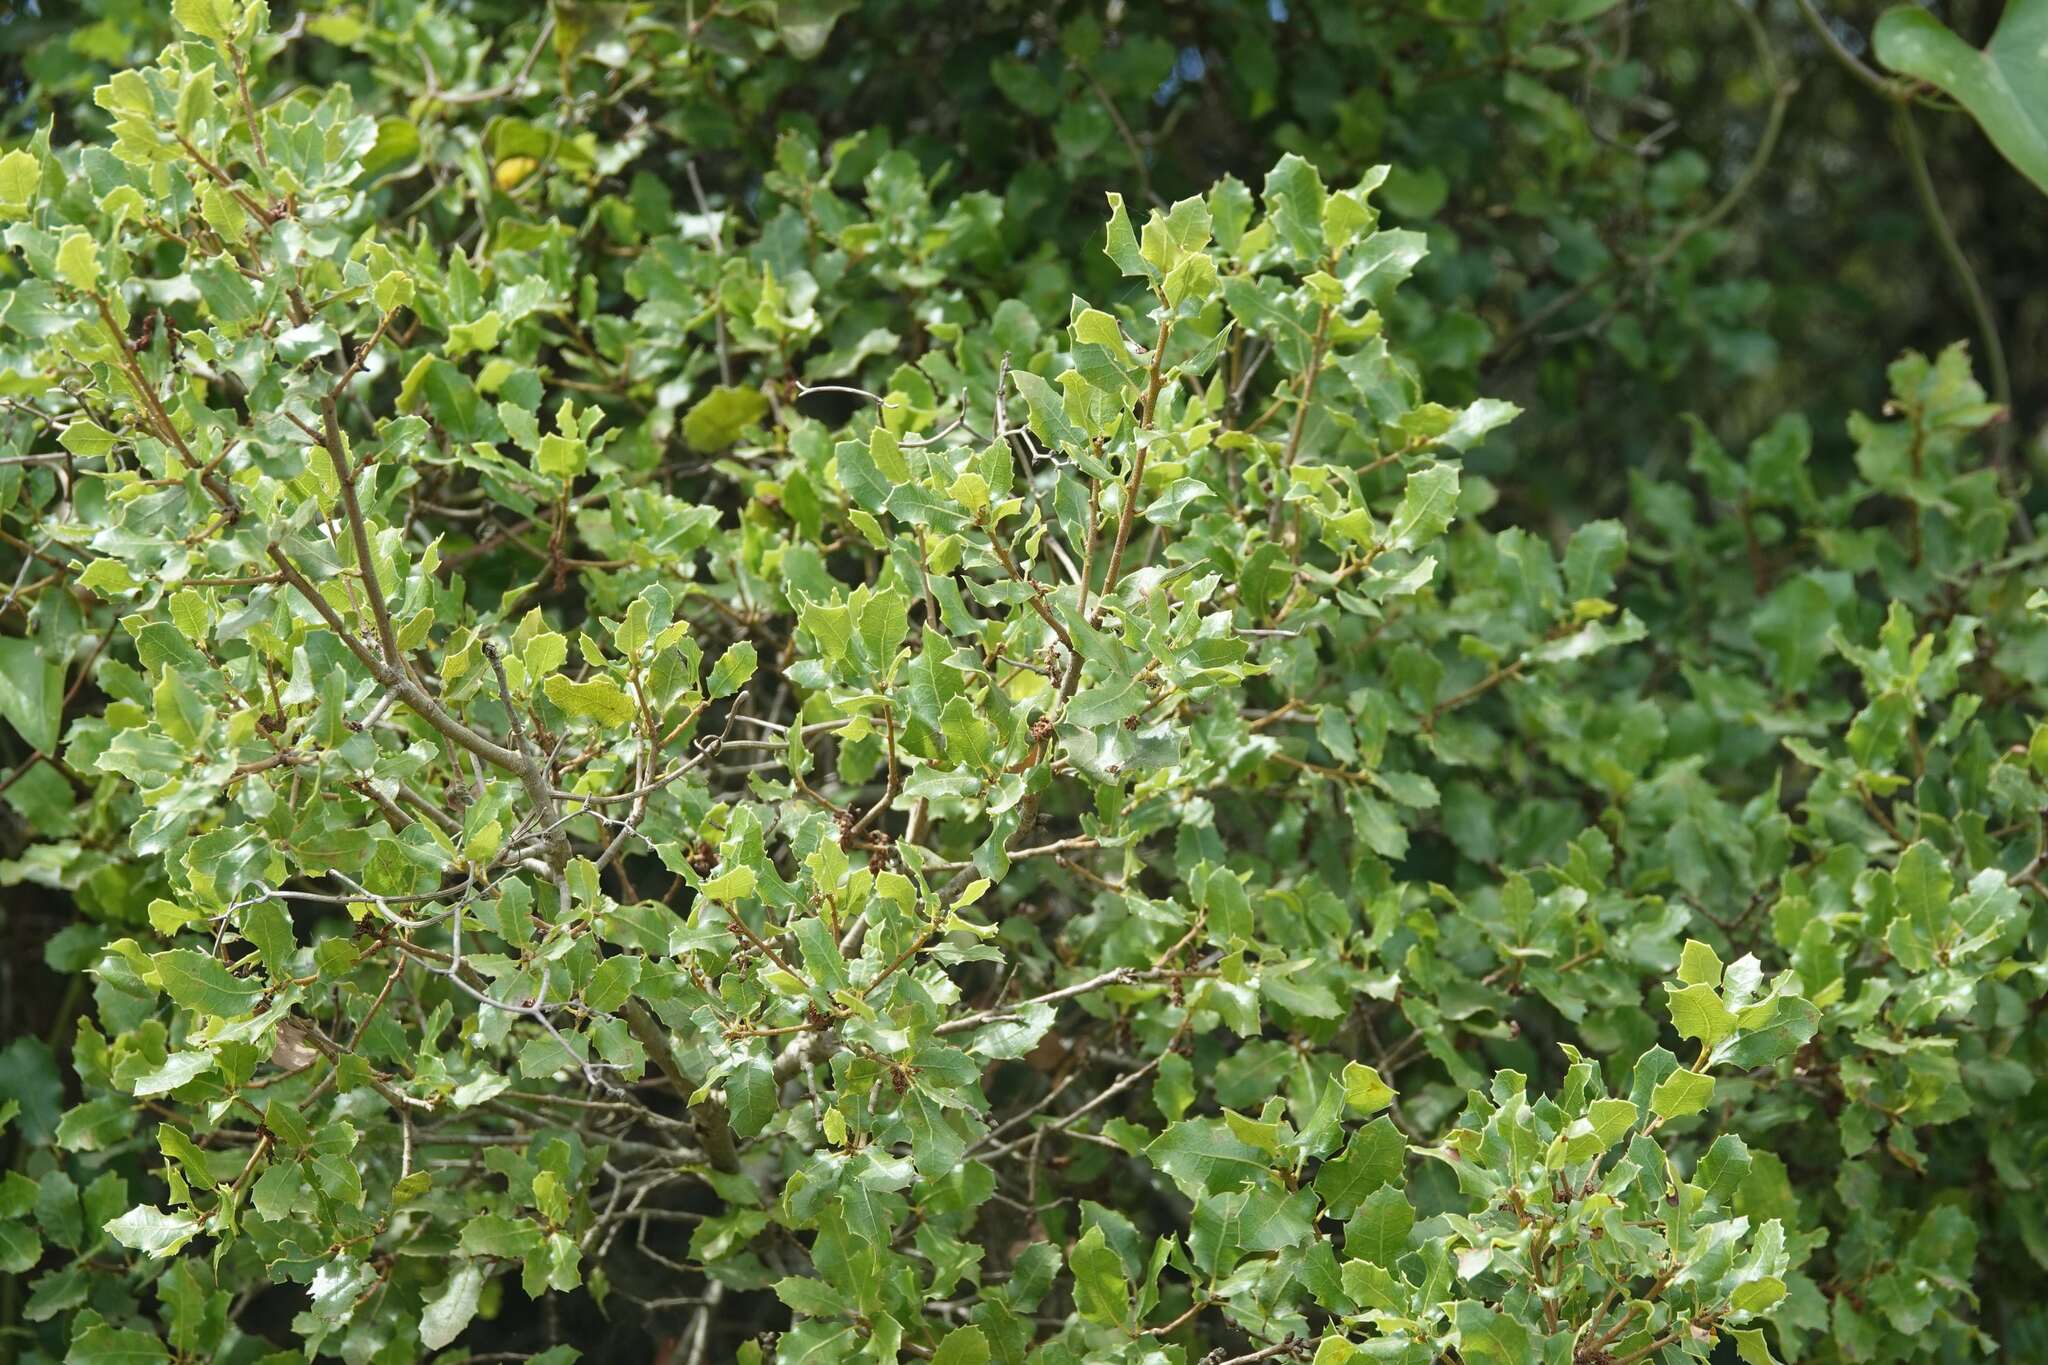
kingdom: Plantae
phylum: Tracheophyta
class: Magnoliopsida
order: Fagales
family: Fagaceae
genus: Quercus
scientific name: Quercus coccifera
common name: Kermes oak
